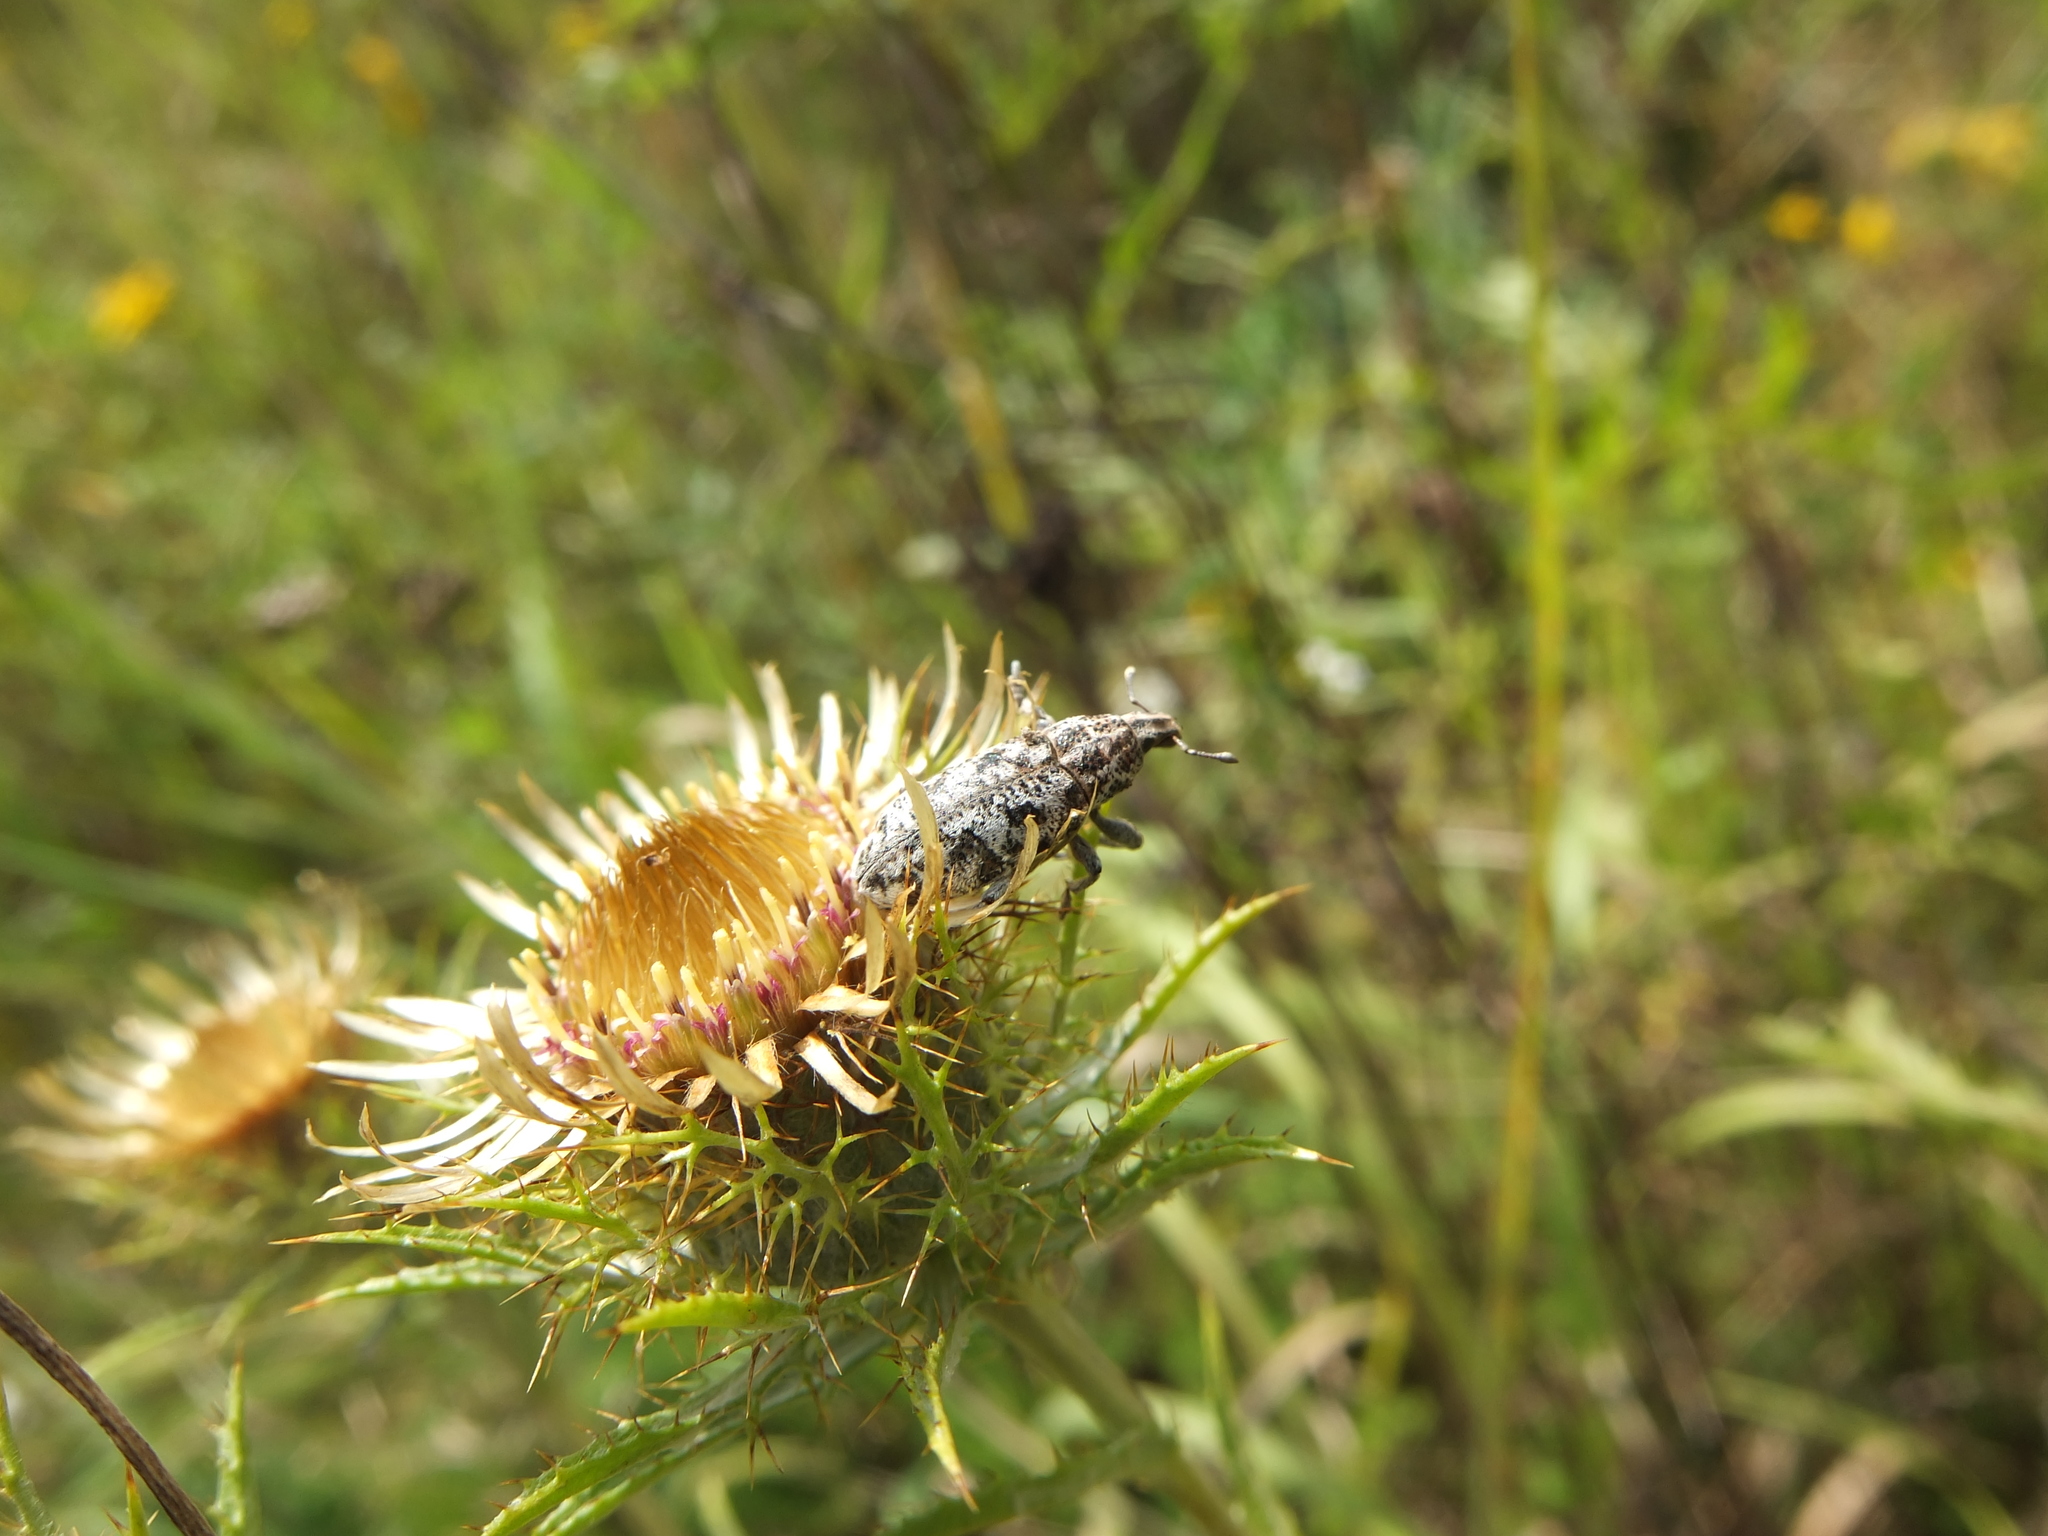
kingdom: Animalia
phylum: Arthropoda
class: Insecta
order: Coleoptera
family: Curculionidae
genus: Cyphocleonus
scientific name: Cyphocleonus dealbatus
